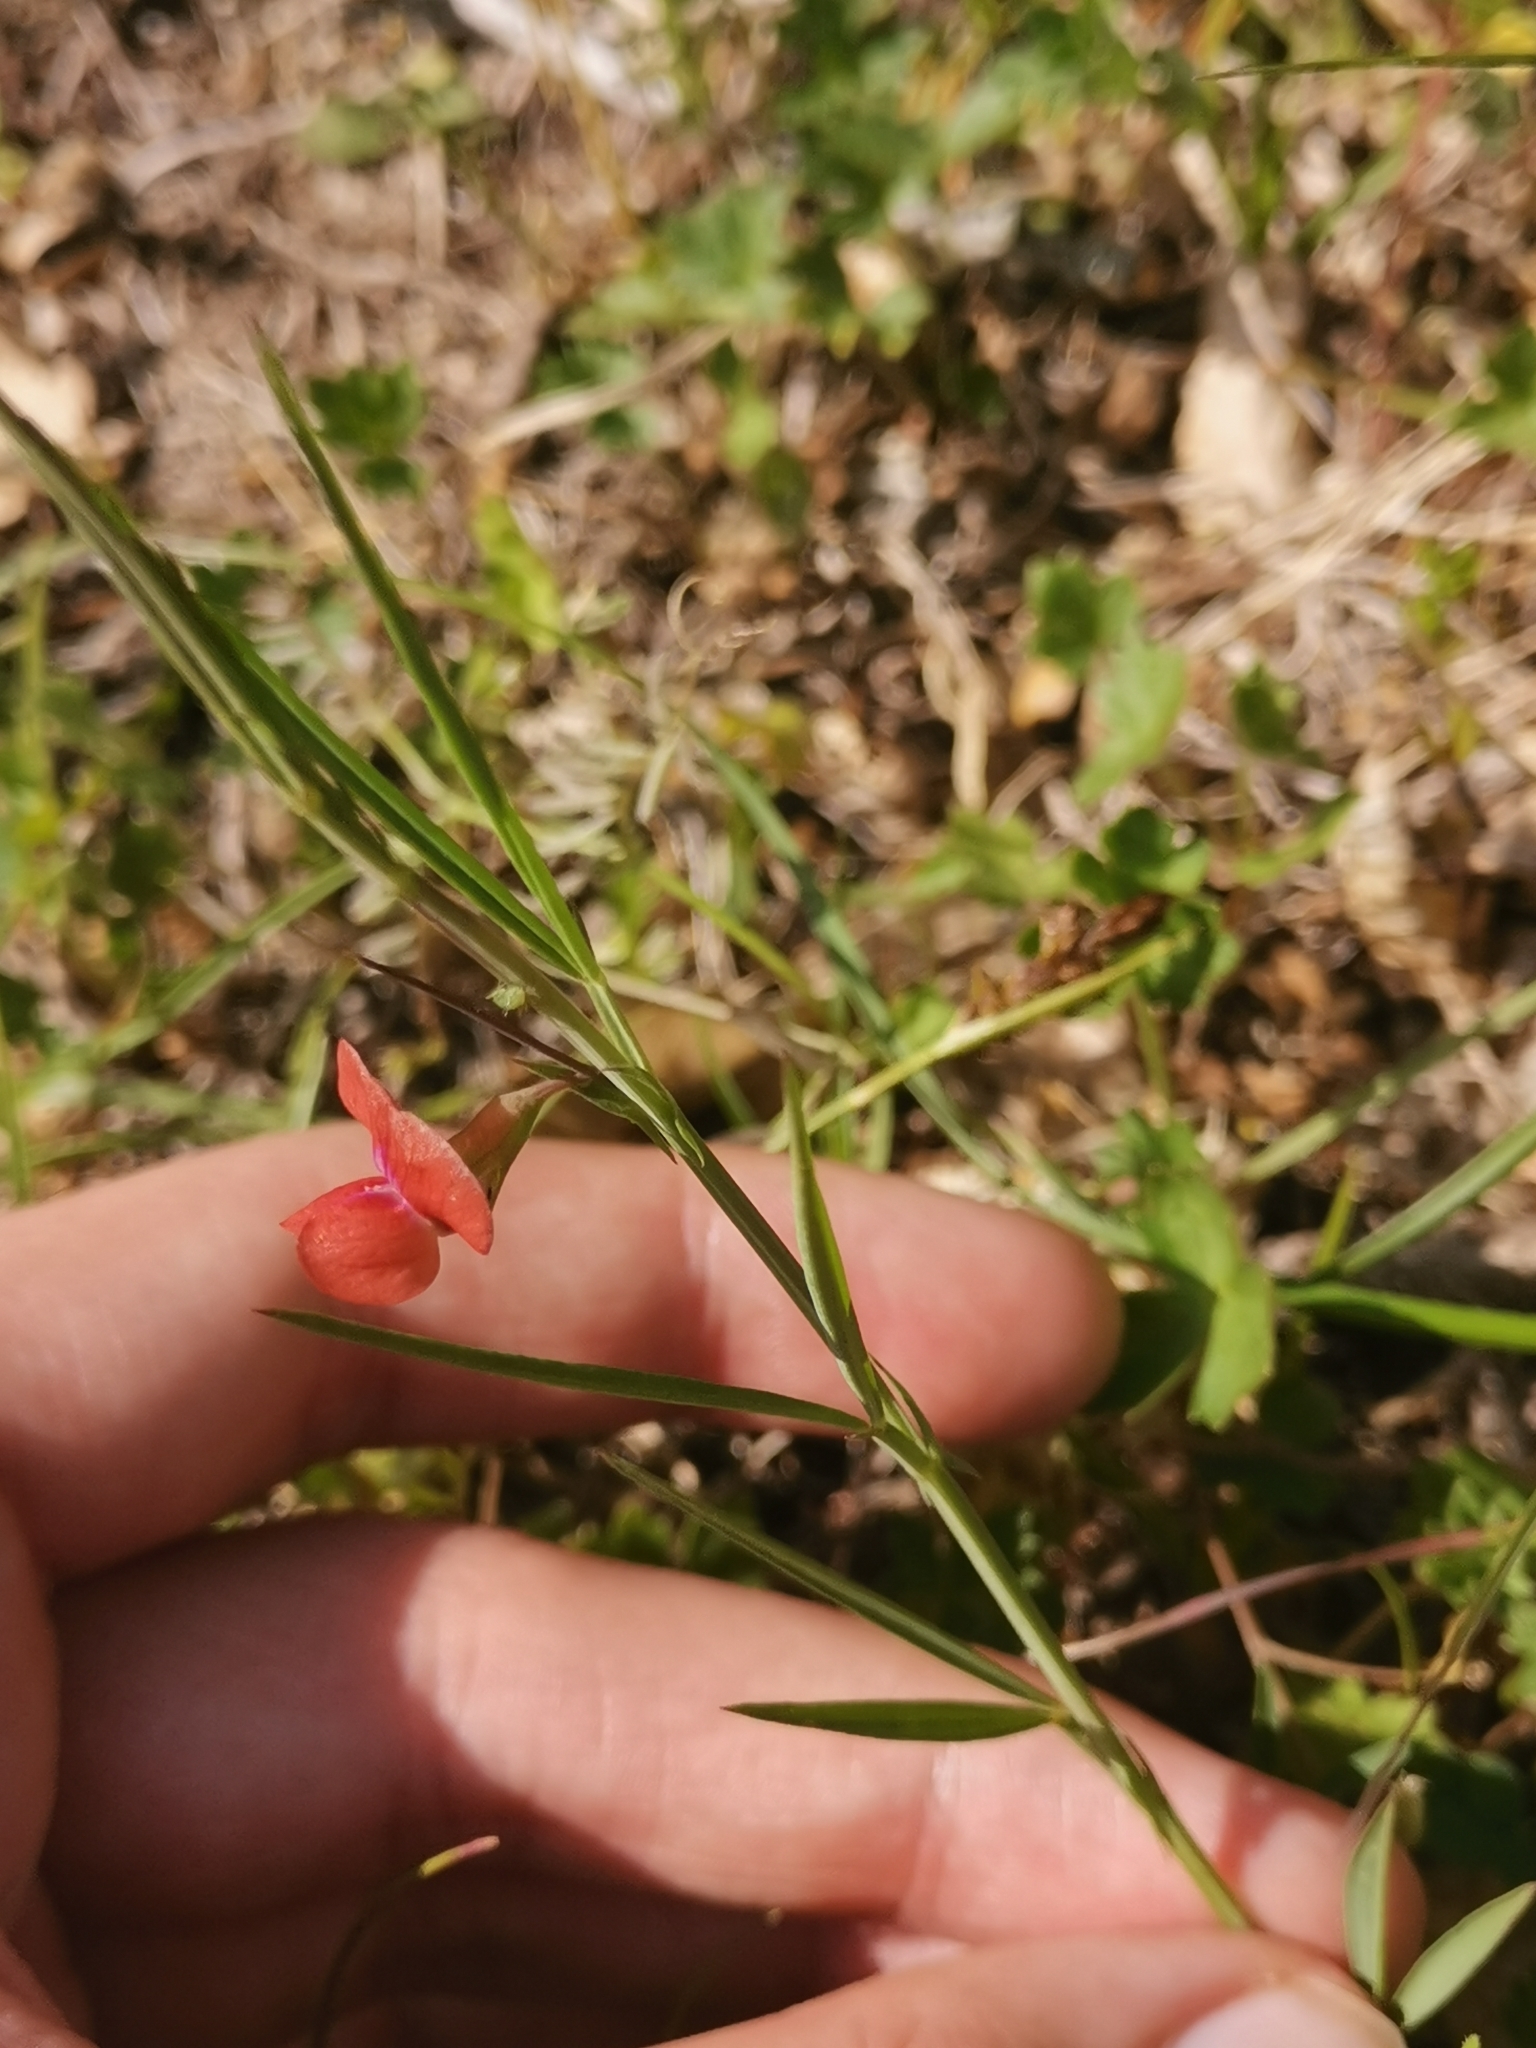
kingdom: Plantae
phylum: Tracheophyta
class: Magnoliopsida
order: Fabales
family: Fabaceae
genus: Lathyrus
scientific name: Lathyrus sphaericus
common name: Grass pea
